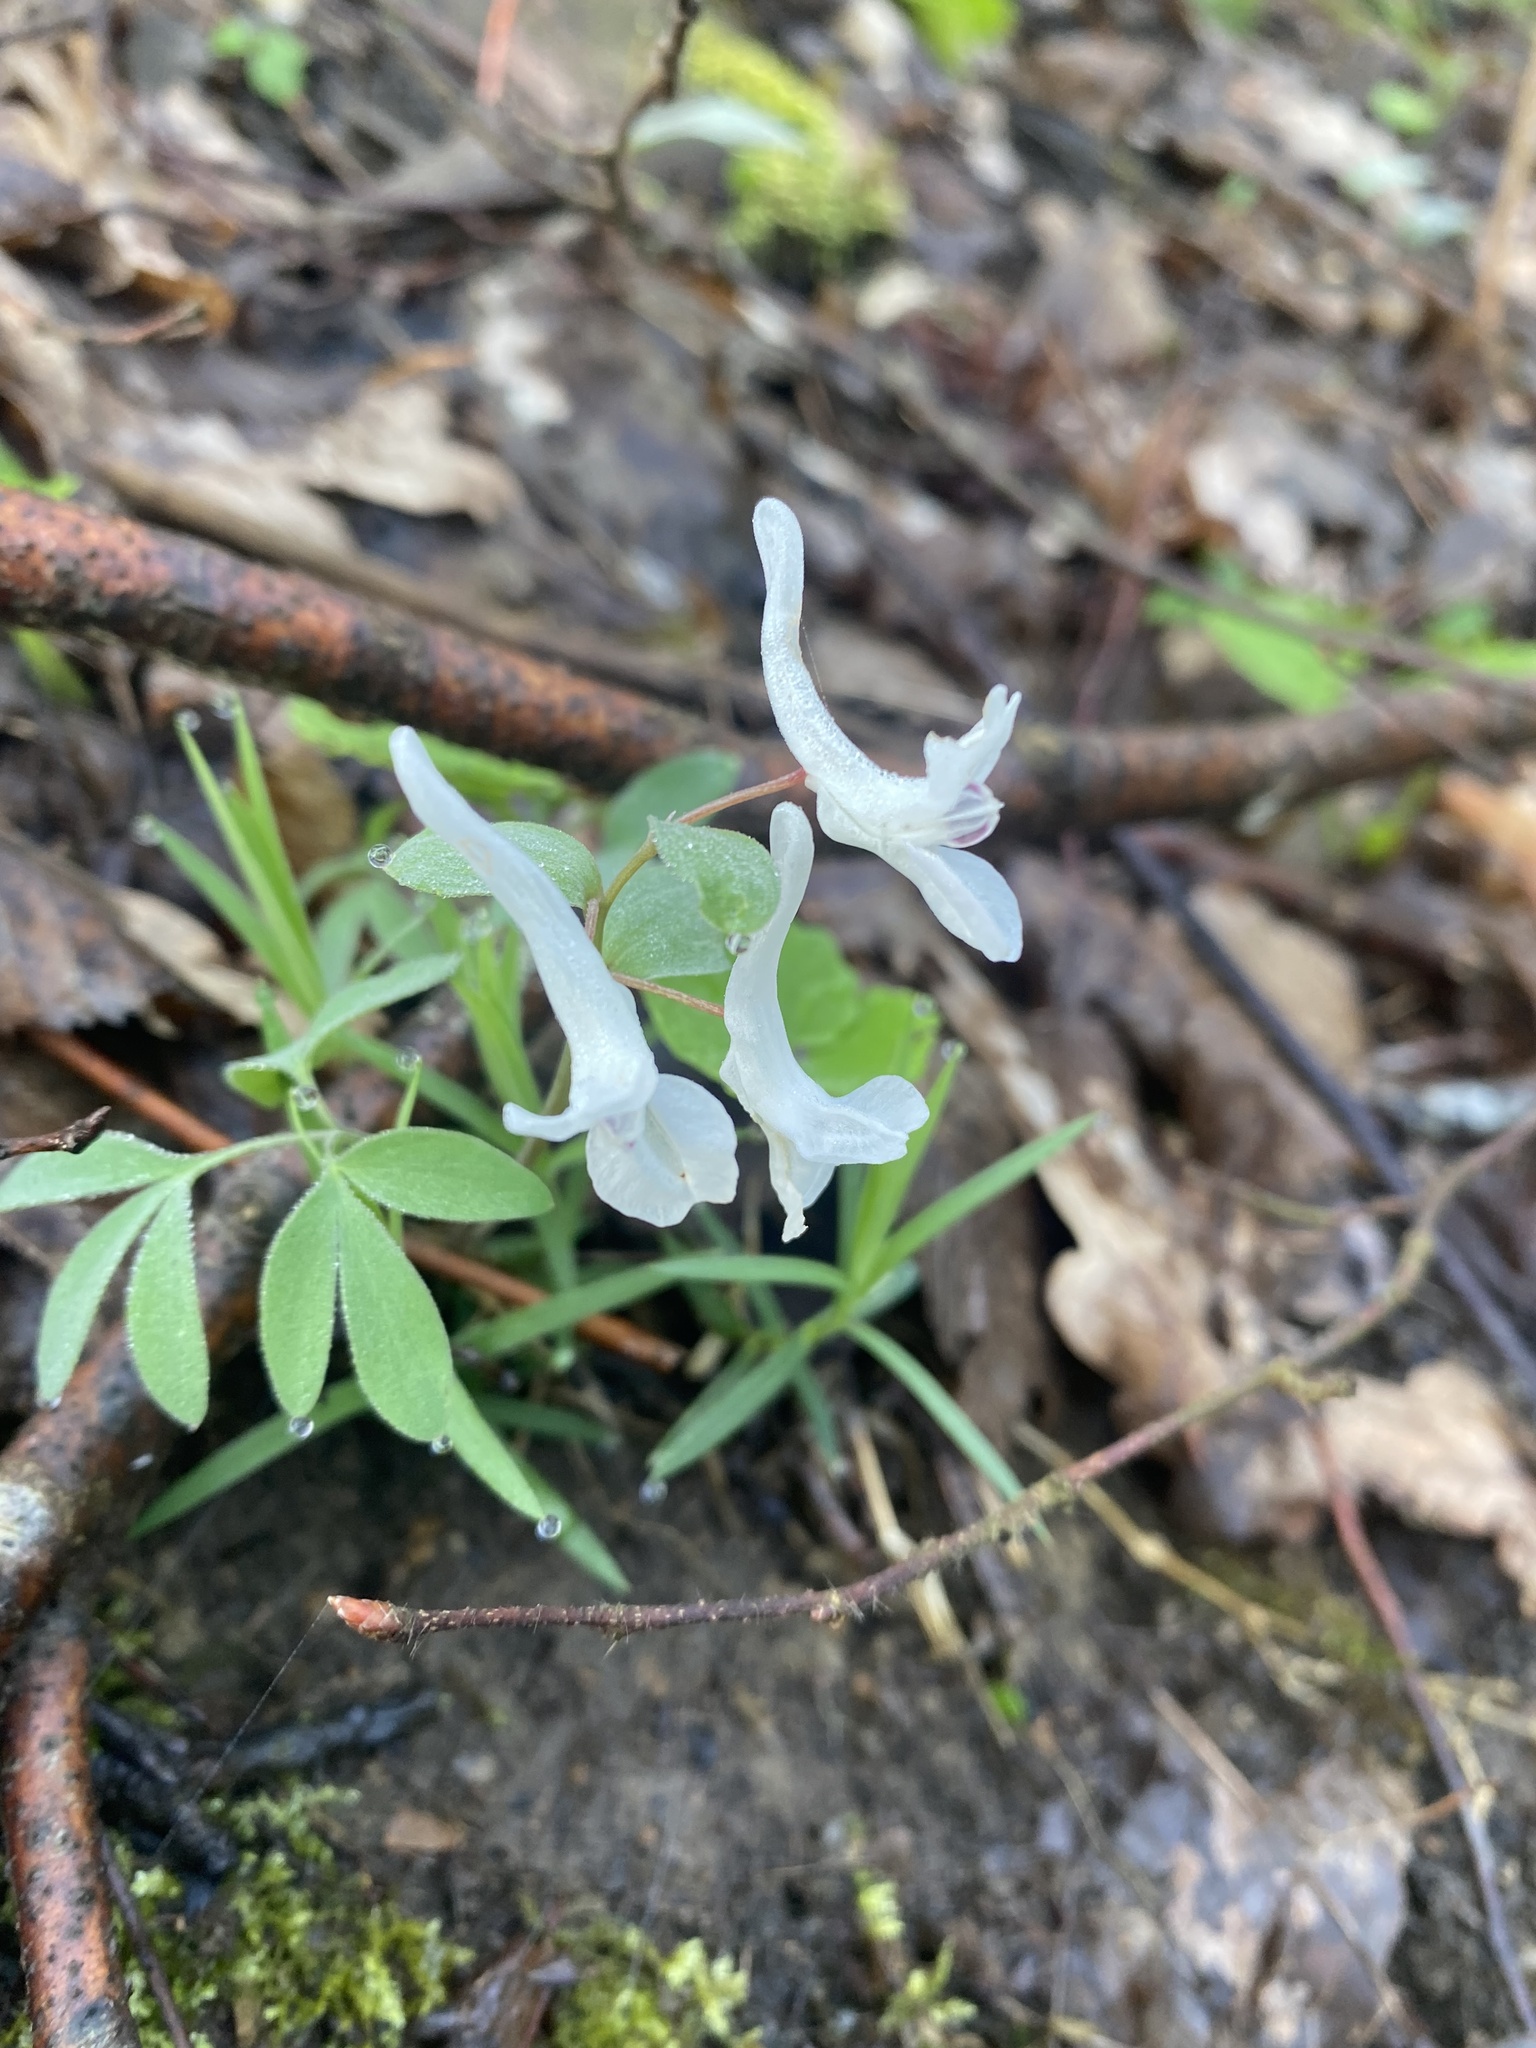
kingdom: Plantae
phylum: Tracheophyta
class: Magnoliopsida
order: Ranunculales
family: Papaveraceae
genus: Corydalis
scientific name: Corydalis caucasica
